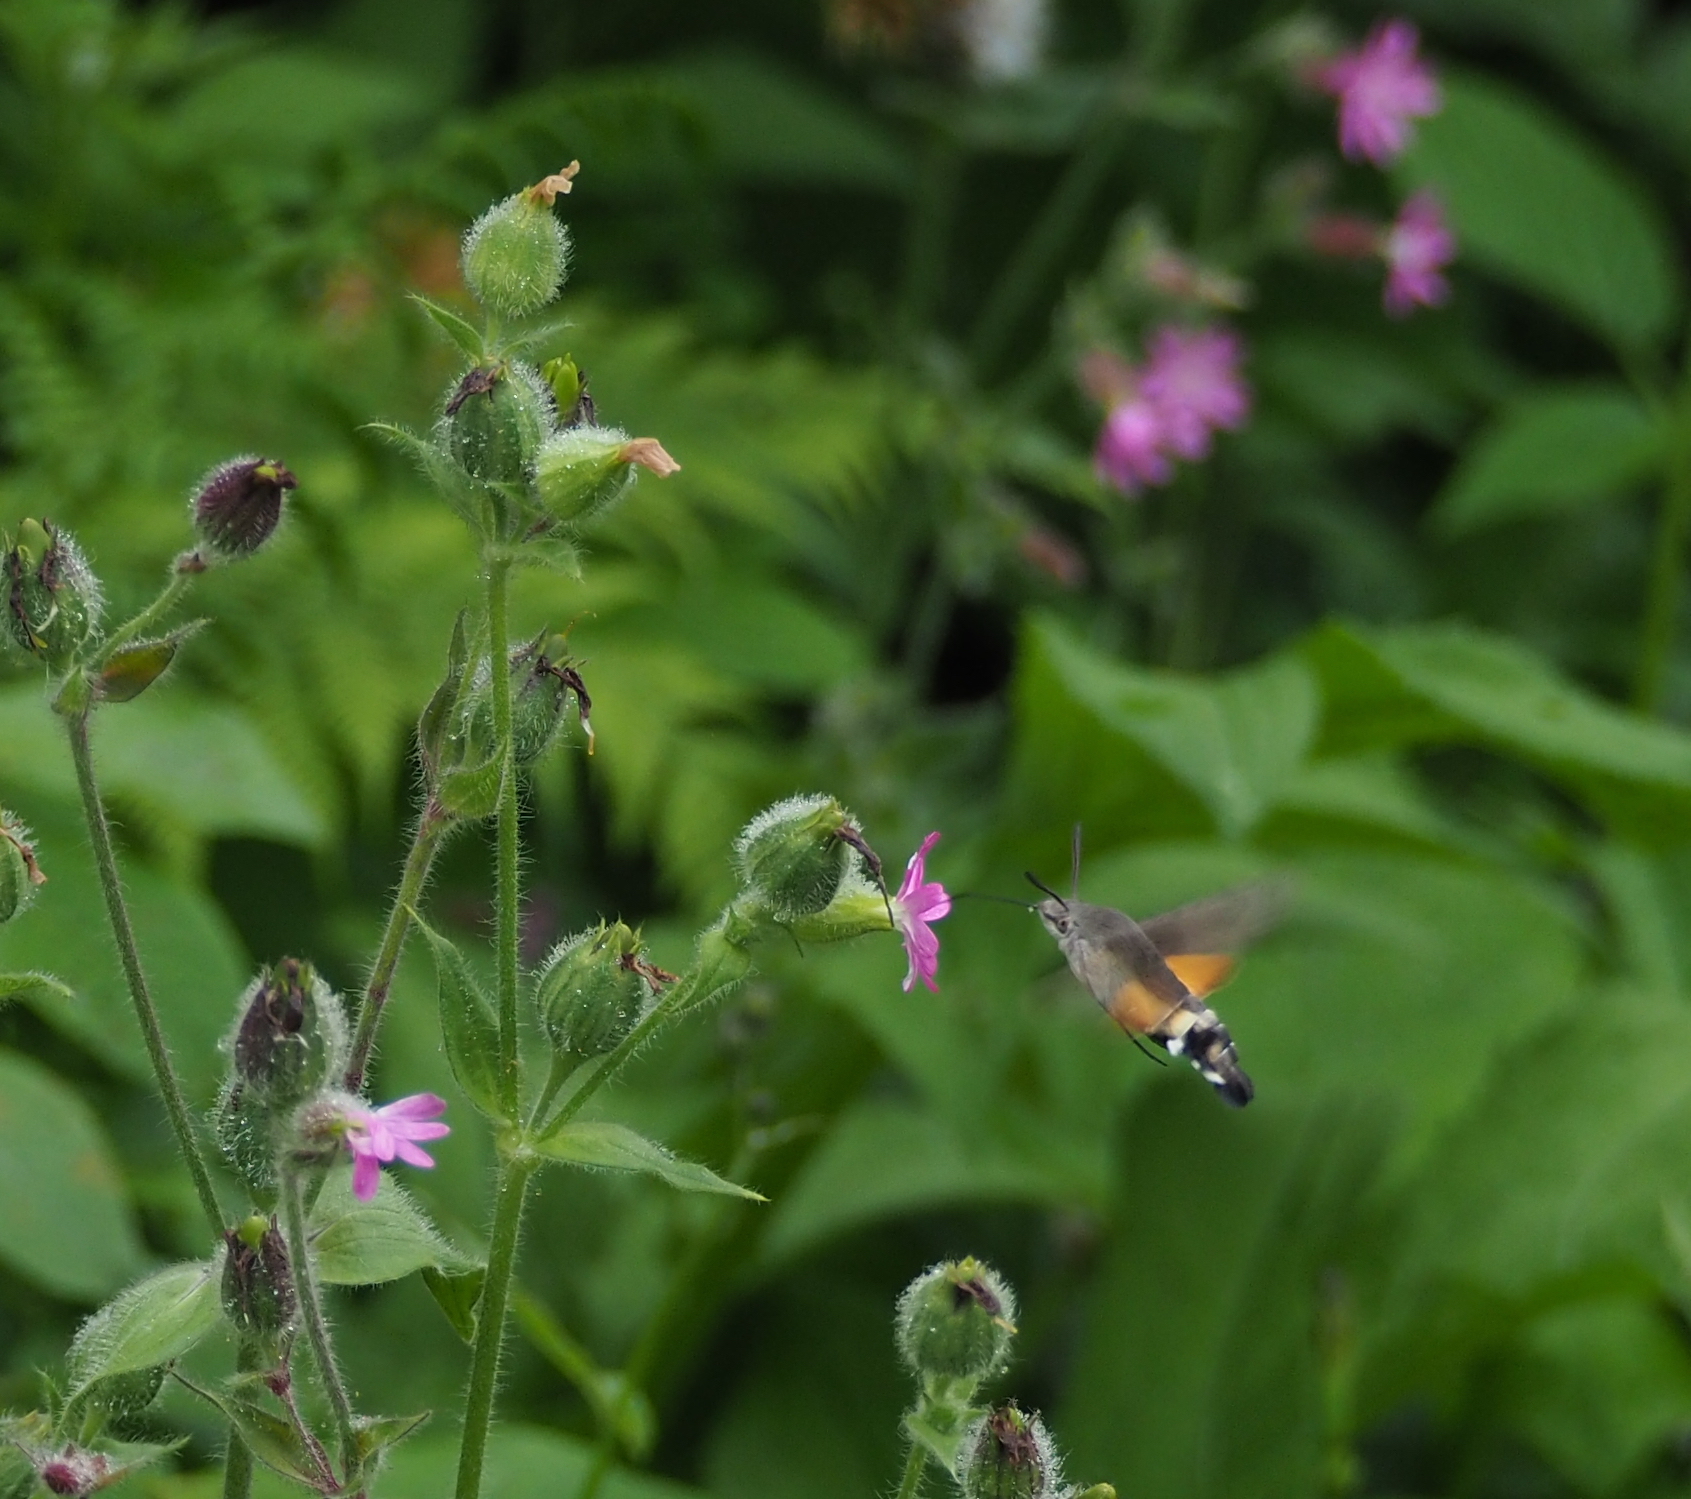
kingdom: Animalia
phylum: Arthropoda
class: Insecta
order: Lepidoptera
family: Sphingidae
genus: Macroglossum
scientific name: Macroglossum stellatarum
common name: Humming-bird hawk-moth
